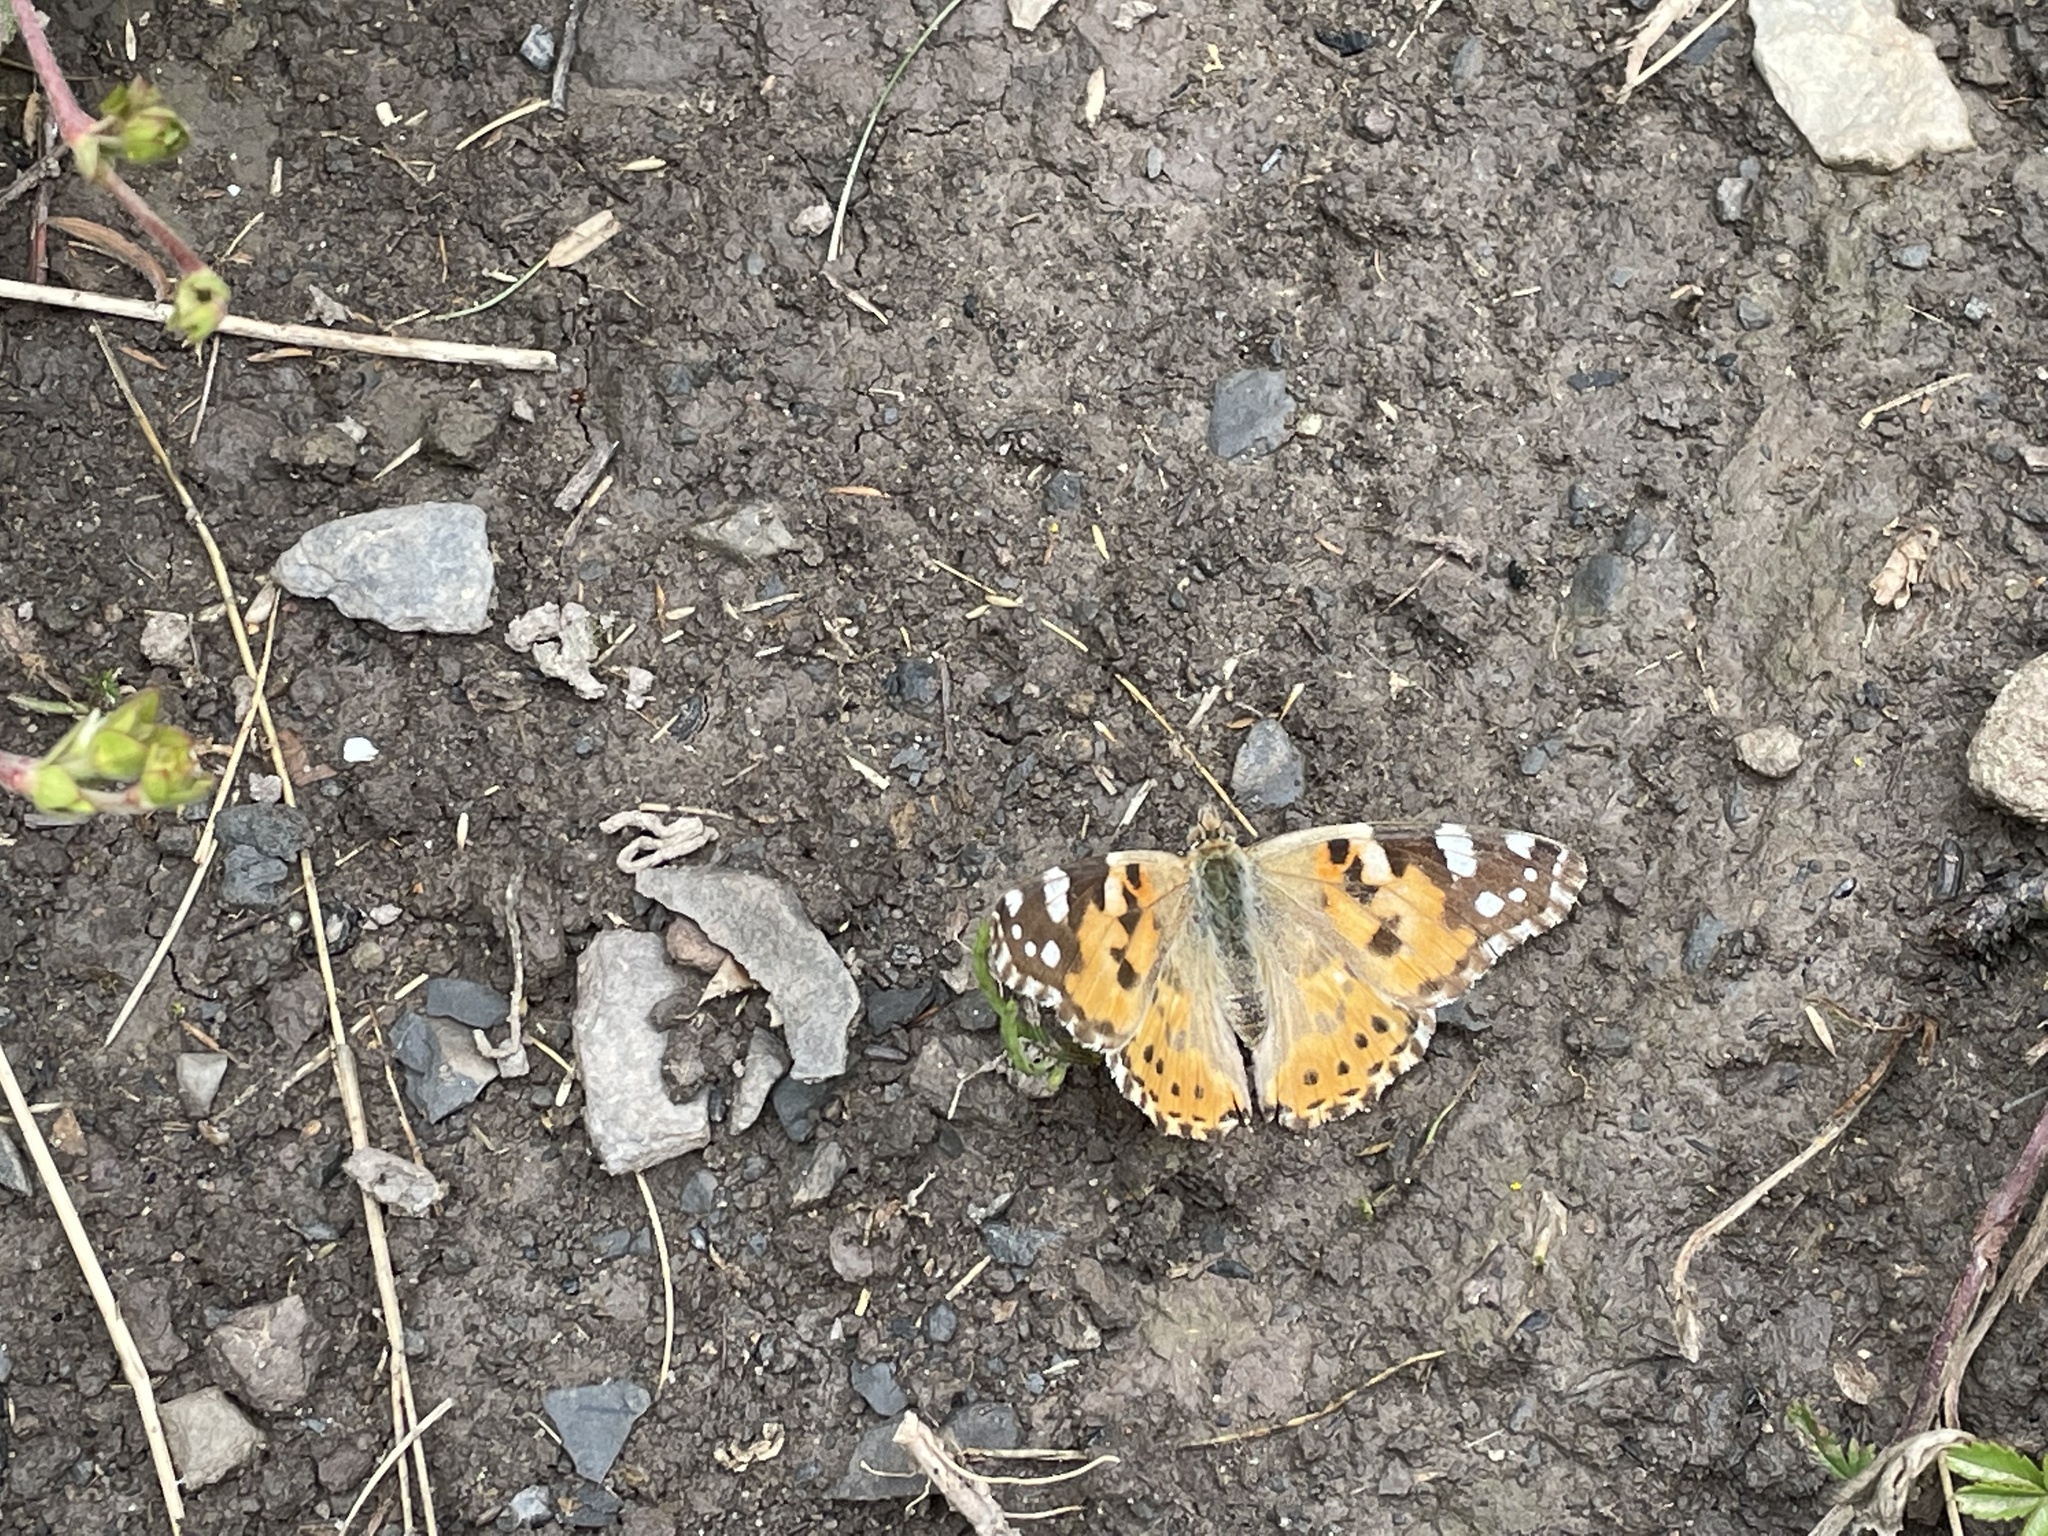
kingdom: Animalia
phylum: Arthropoda
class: Insecta
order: Lepidoptera
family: Nymphalidae
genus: Vanessa
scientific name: Vanessa cardui
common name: Painted lady
